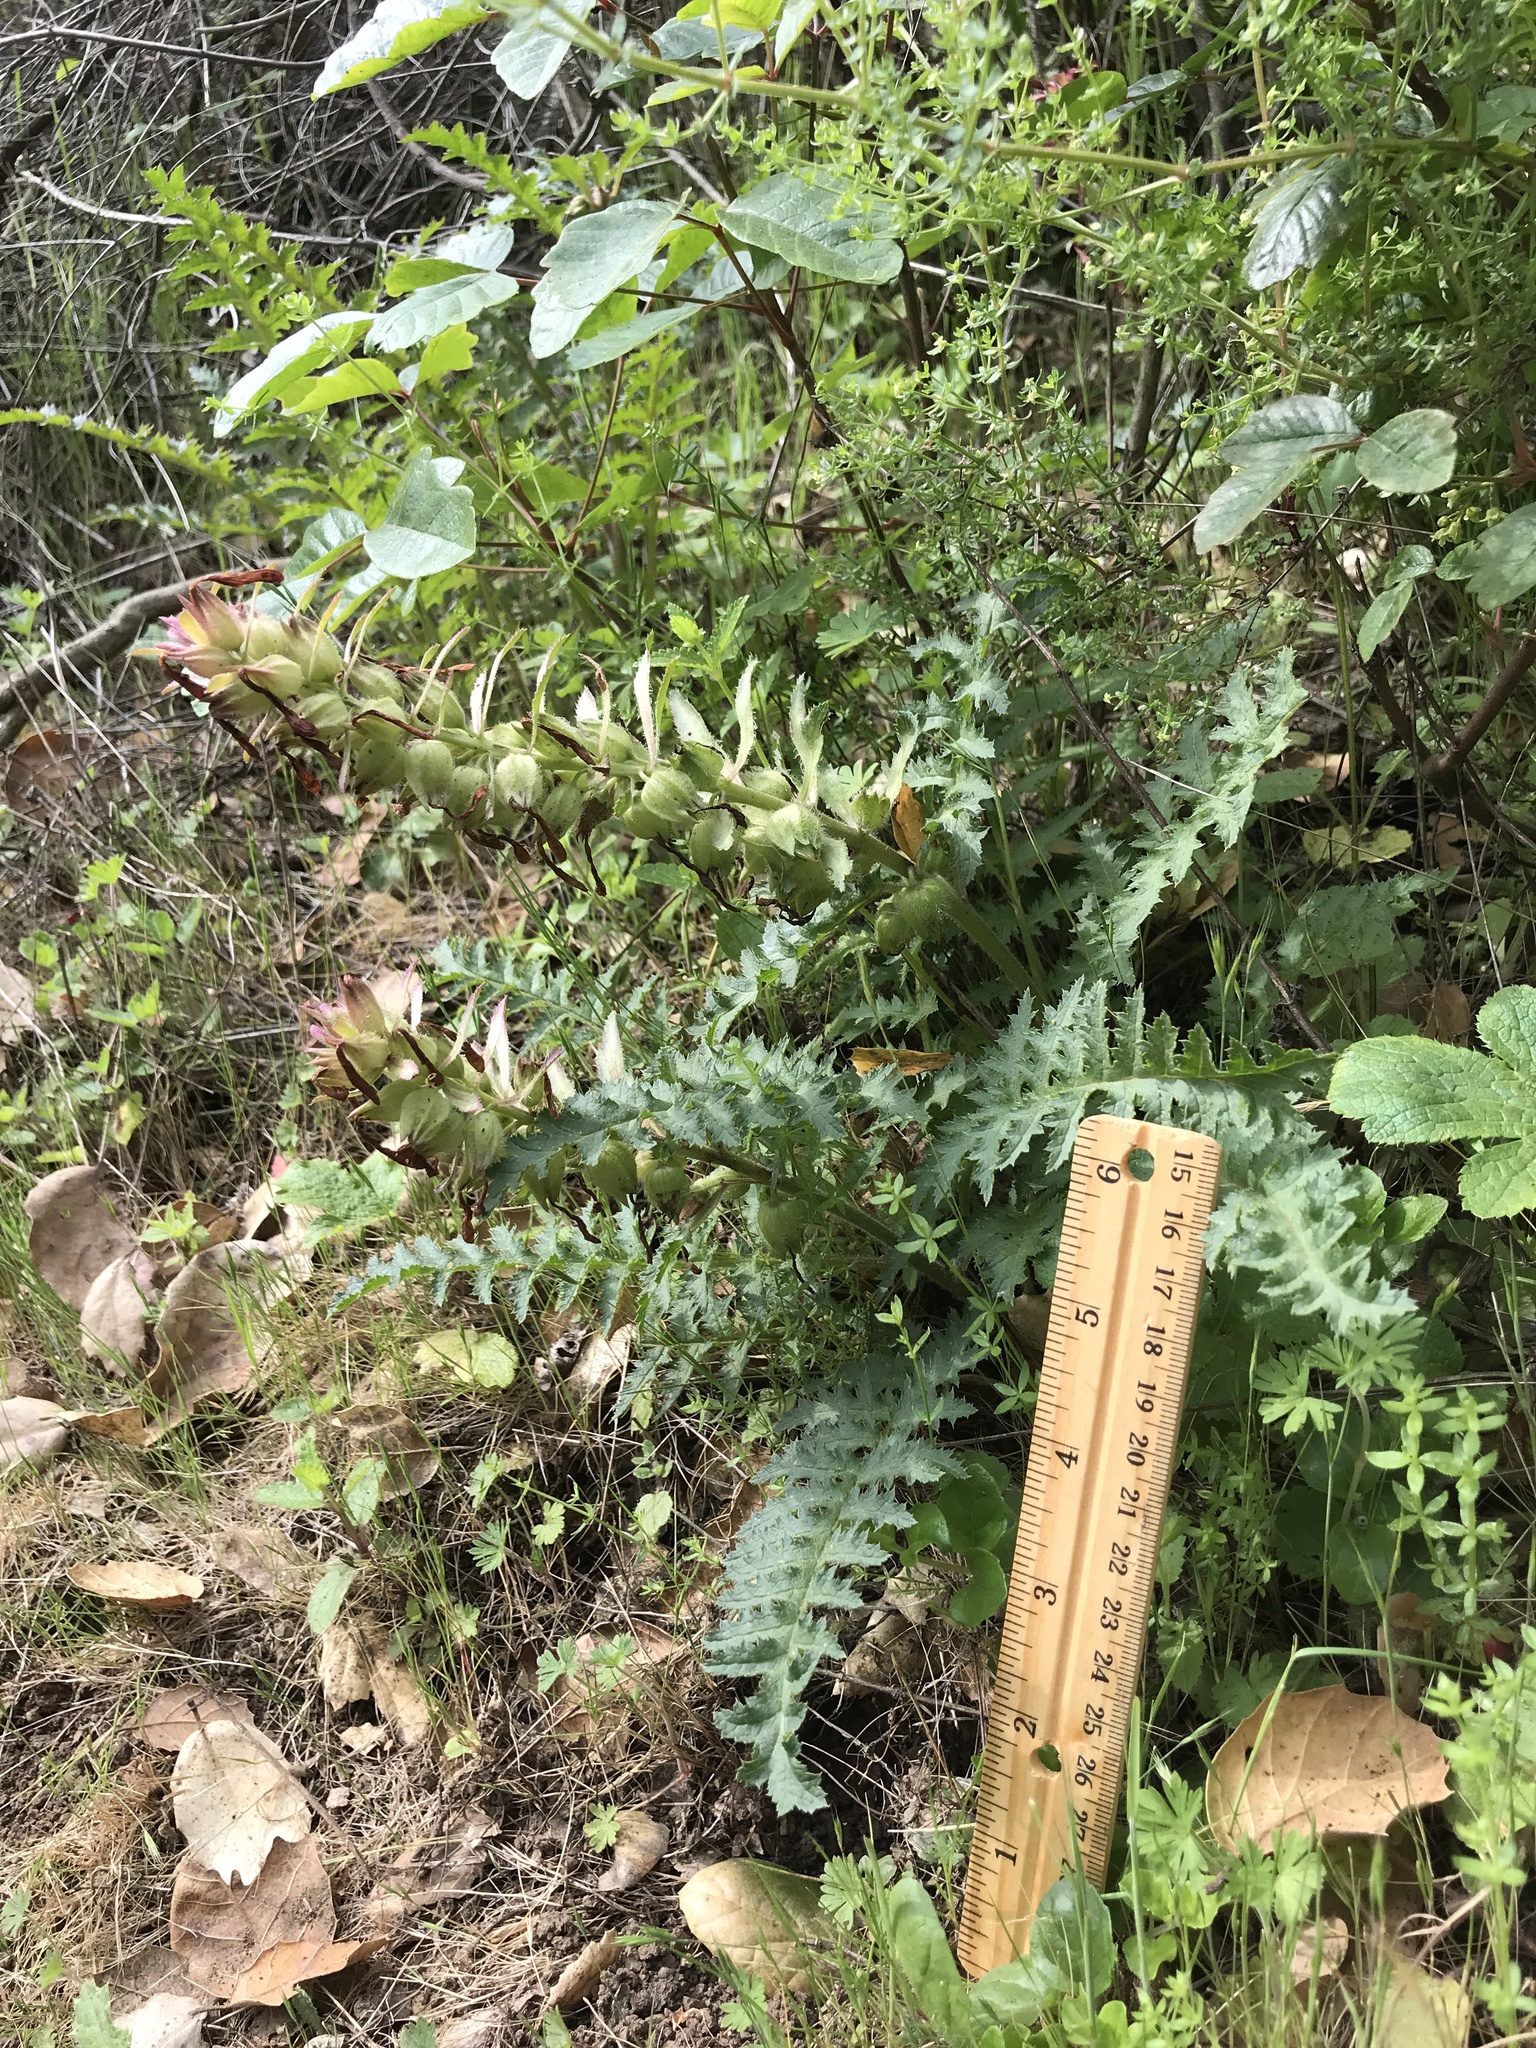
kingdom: Plantae
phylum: Tracheophyta
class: Magnoliopsida
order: Lamiales
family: Orobanchaceae
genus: Pedicularis
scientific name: Pedicularis densiflora
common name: Indian warrior
